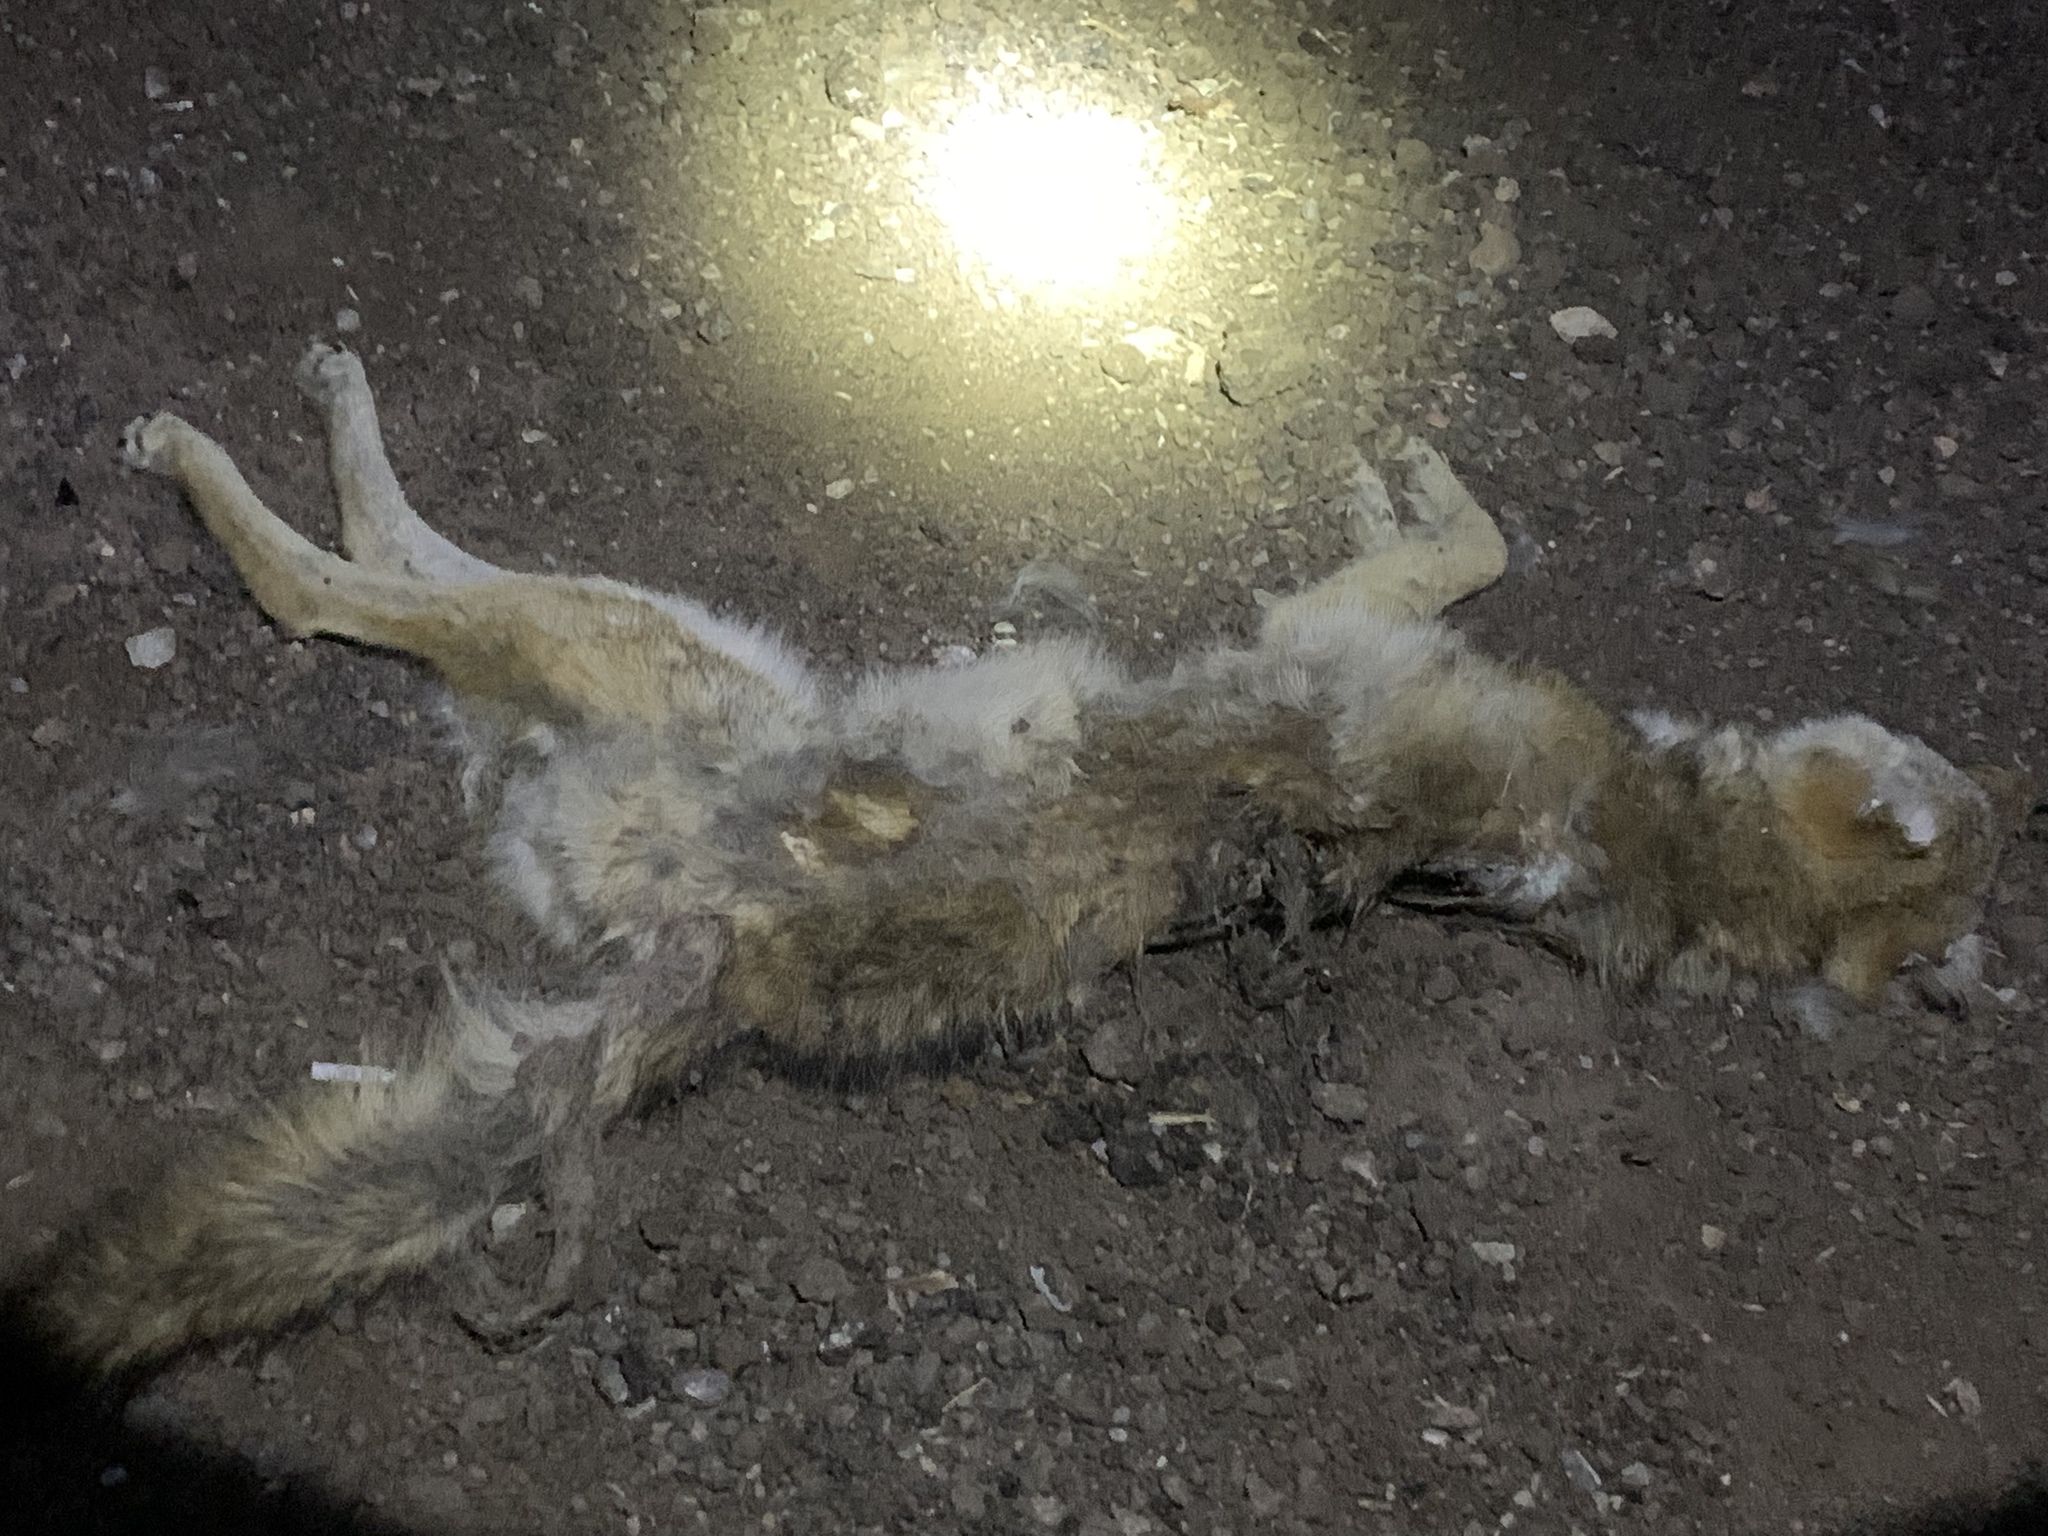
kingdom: Animalia
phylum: Chordata
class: Mammalia
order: Carnivora
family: Canidae
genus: Canis
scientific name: Canis latrans
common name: Coyote
